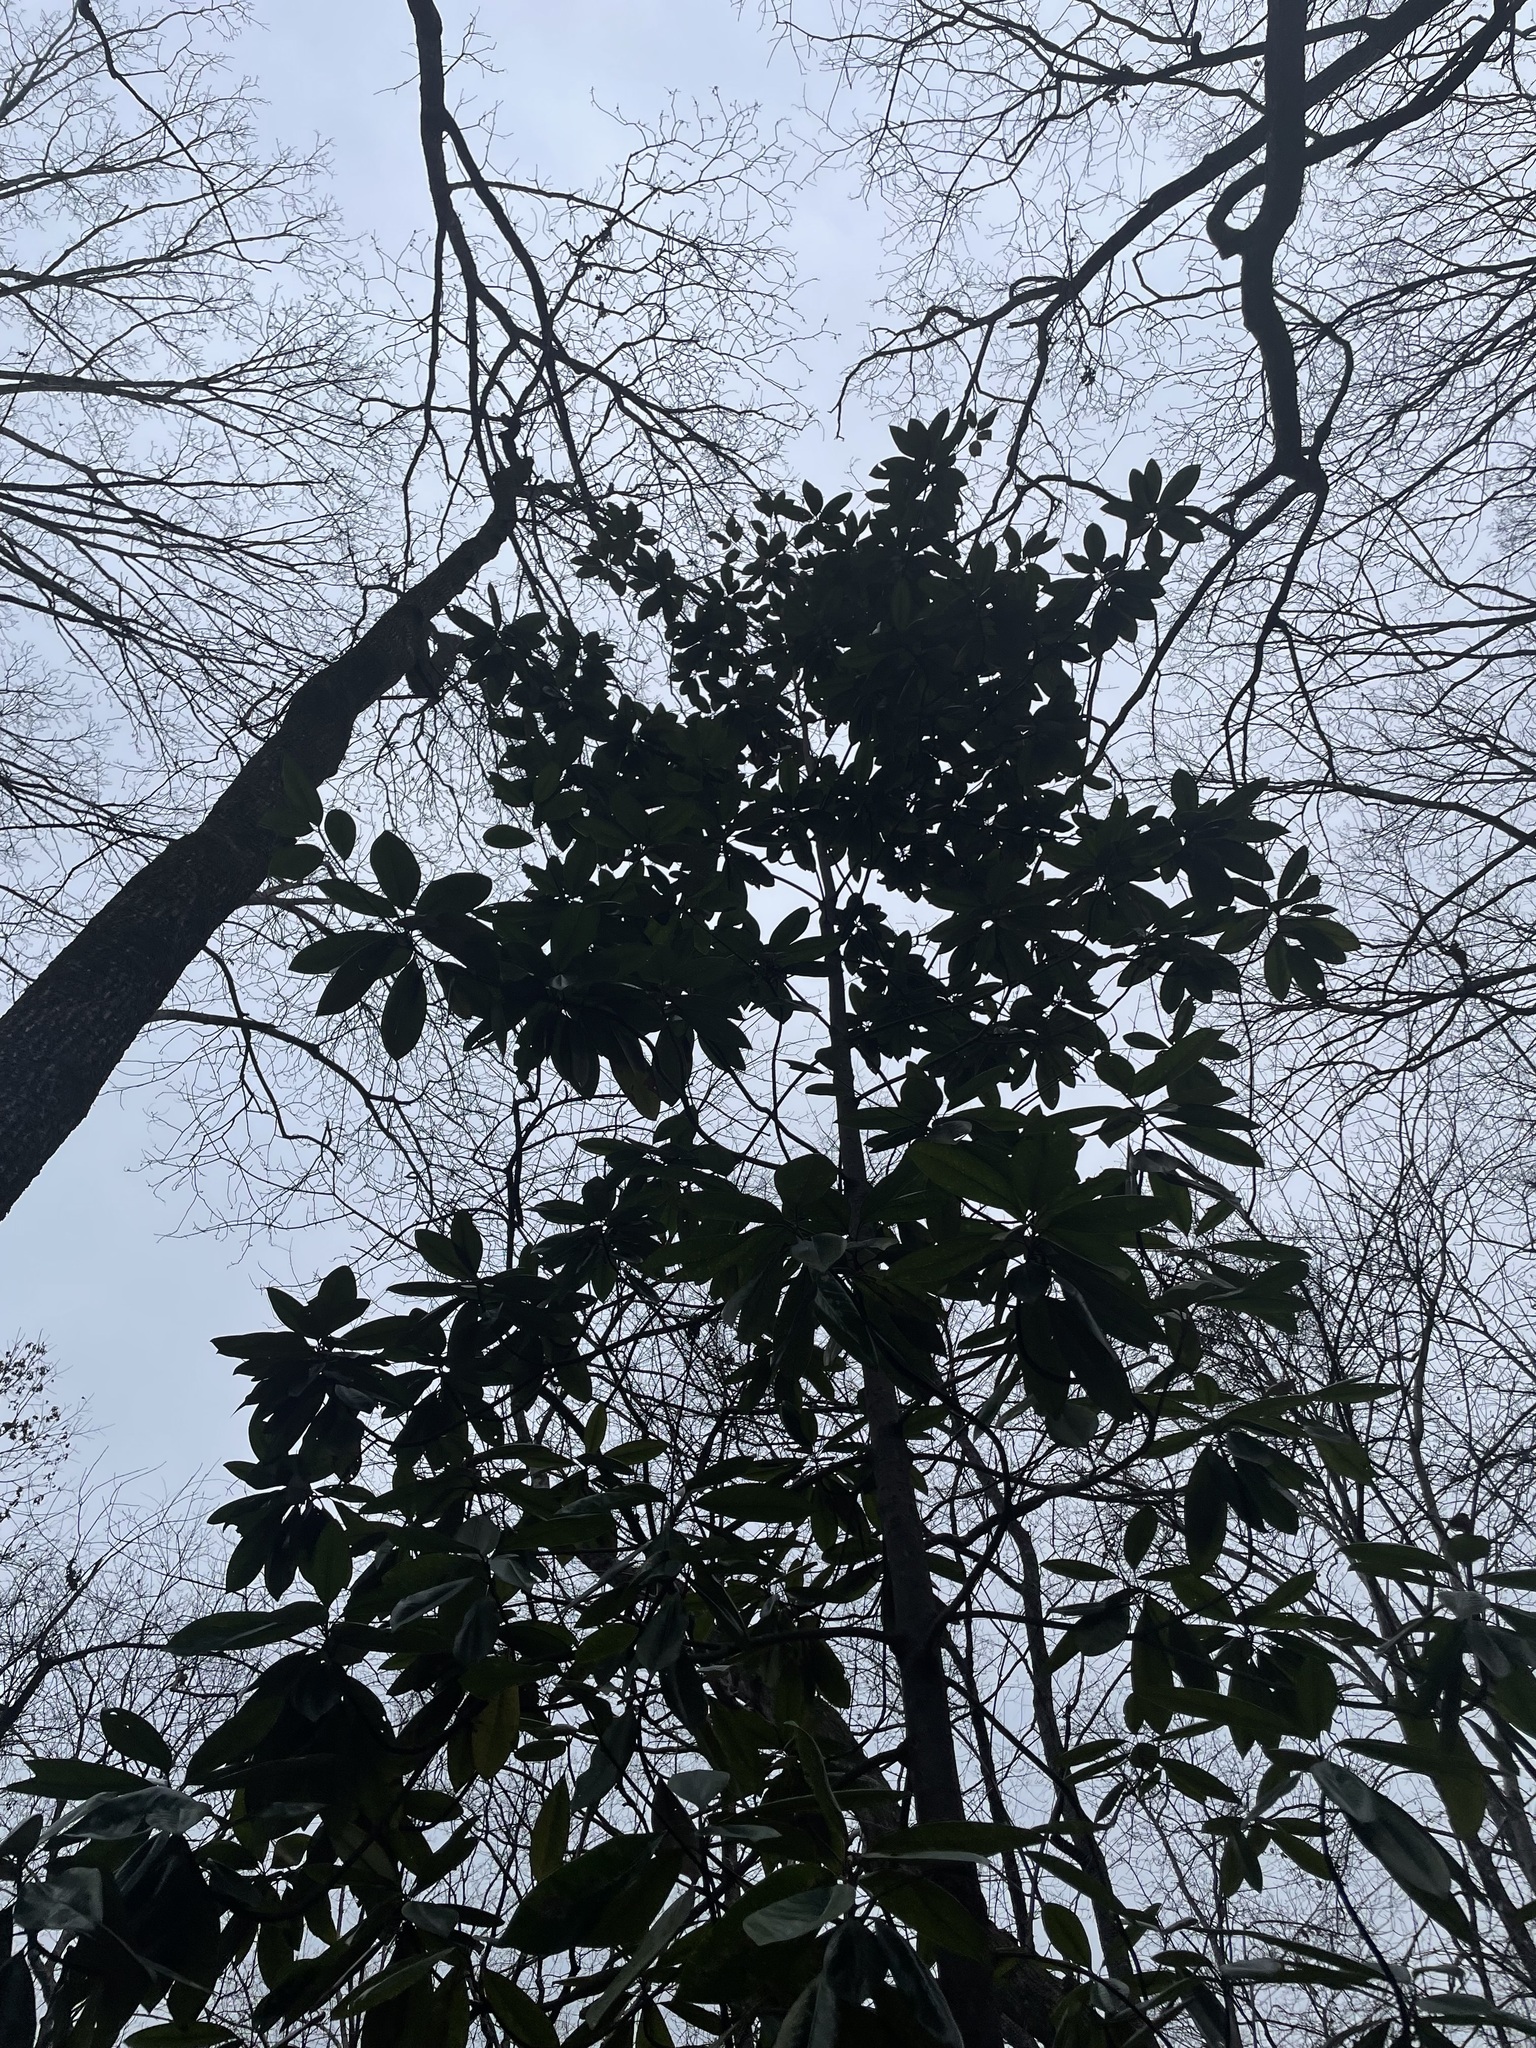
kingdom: Plantae
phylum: Tracheophyta
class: Magnoliopsida
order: Magnoliales
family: Magnoliaceae
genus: Magnolia
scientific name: Magnolia grandiflora
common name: Southern magnolia
